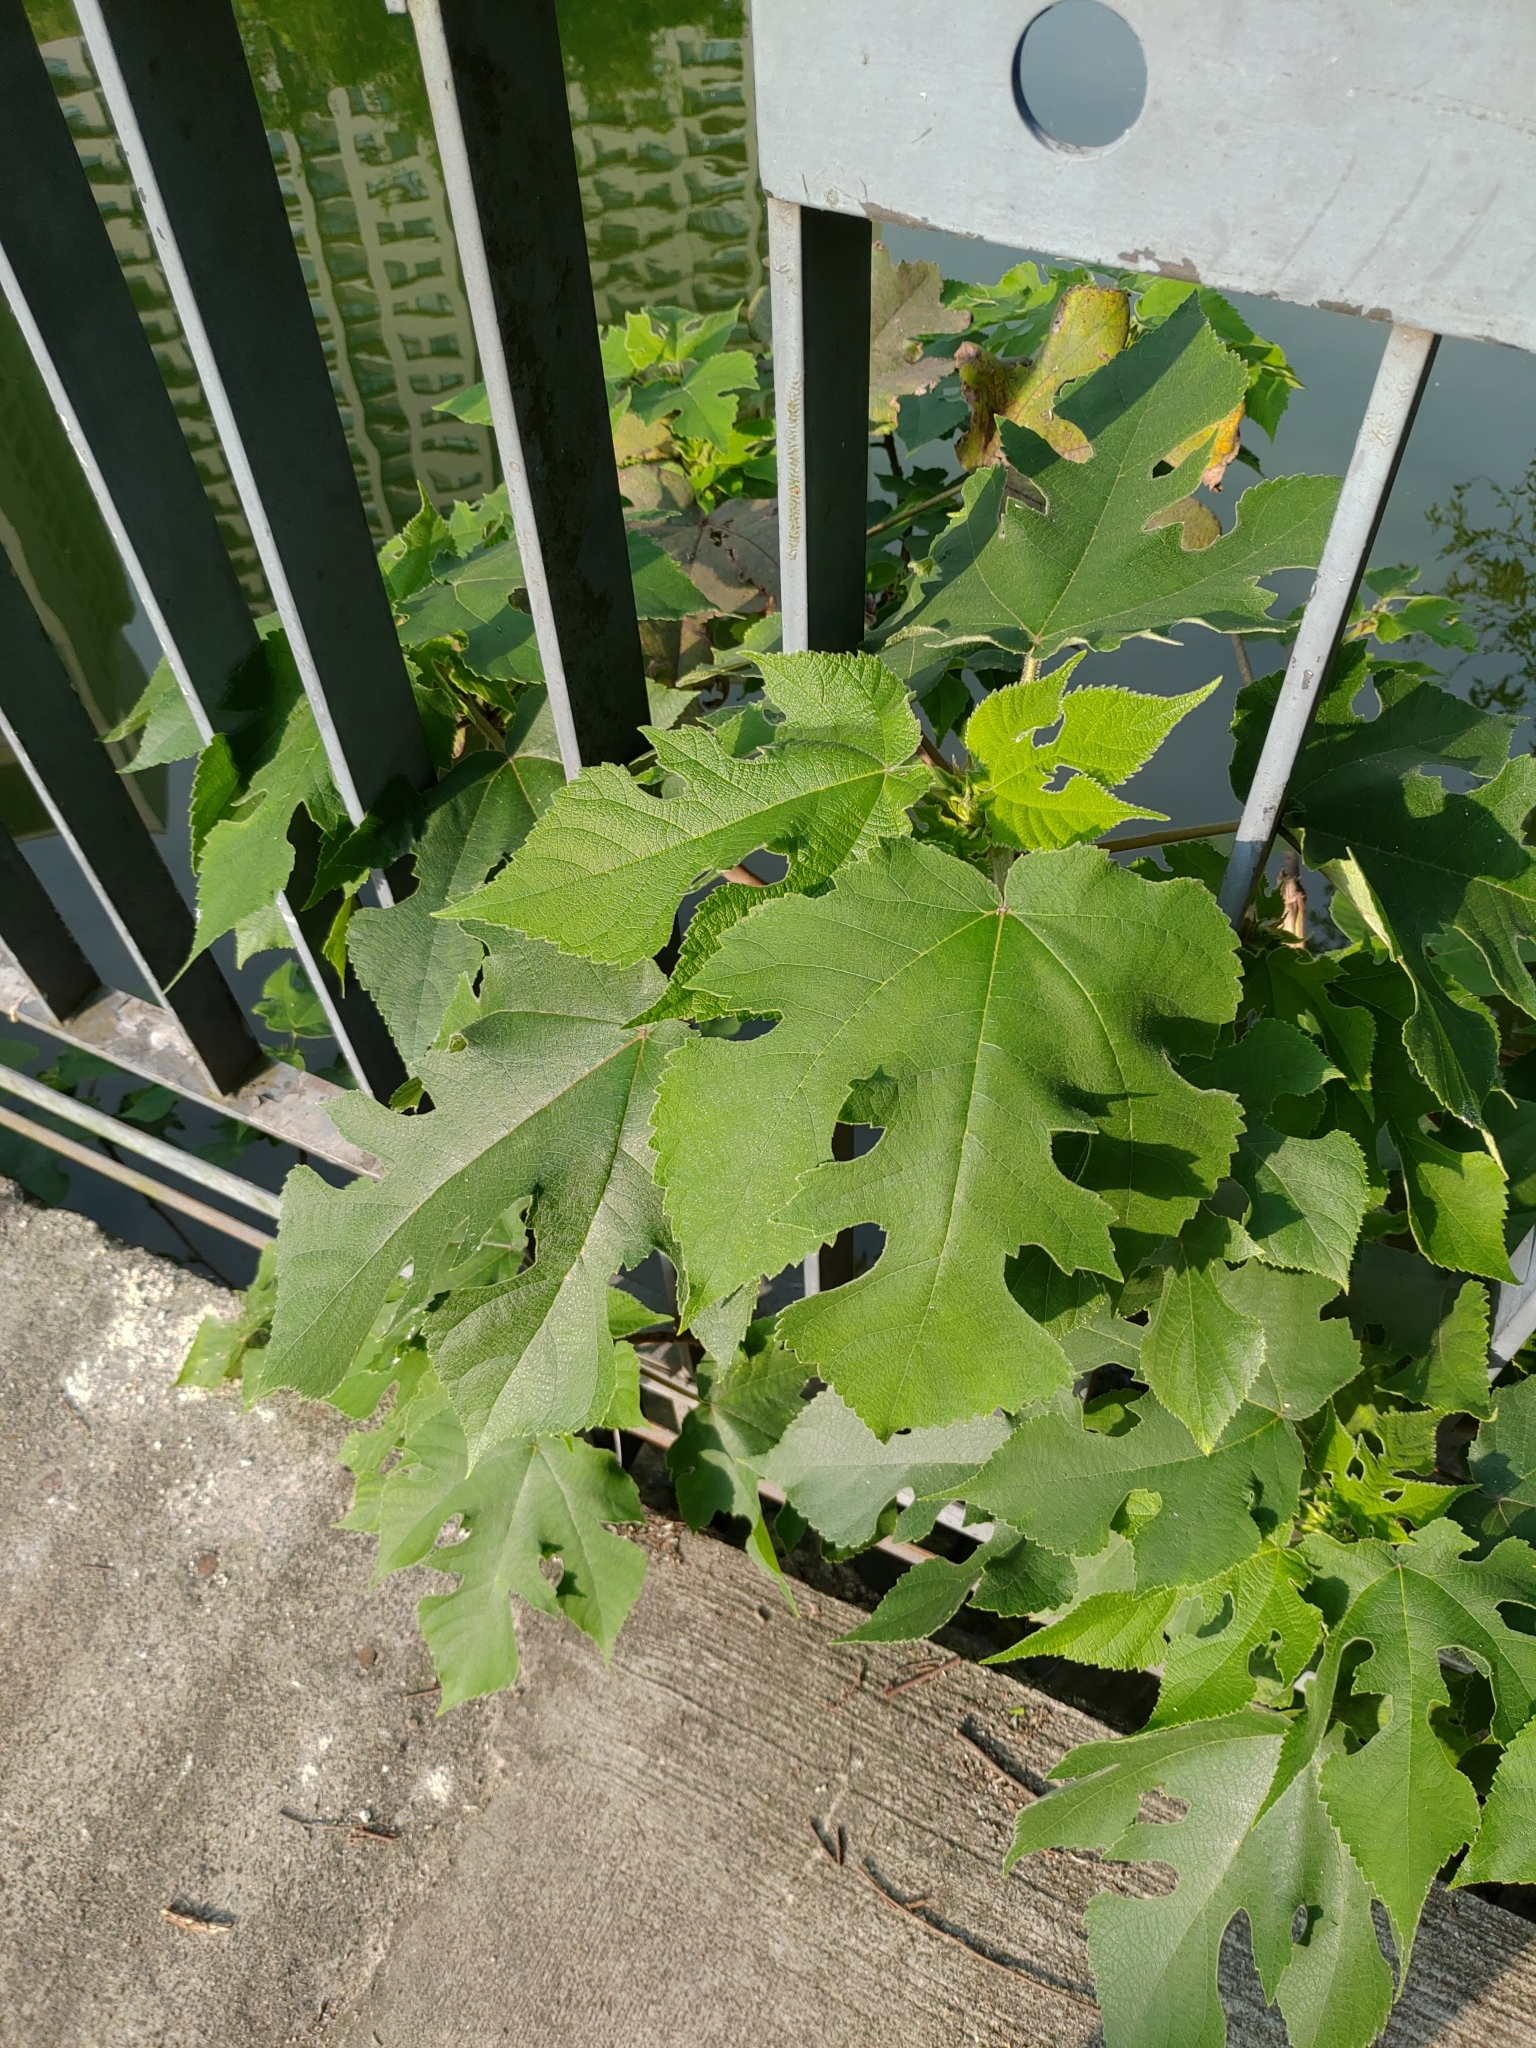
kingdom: Plantae
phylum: Tracheophyta
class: Magnoliopsida
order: Rosales
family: Moraceae
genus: Broussonetia
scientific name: Broussonetia papyrifera
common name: Paper mulberry
